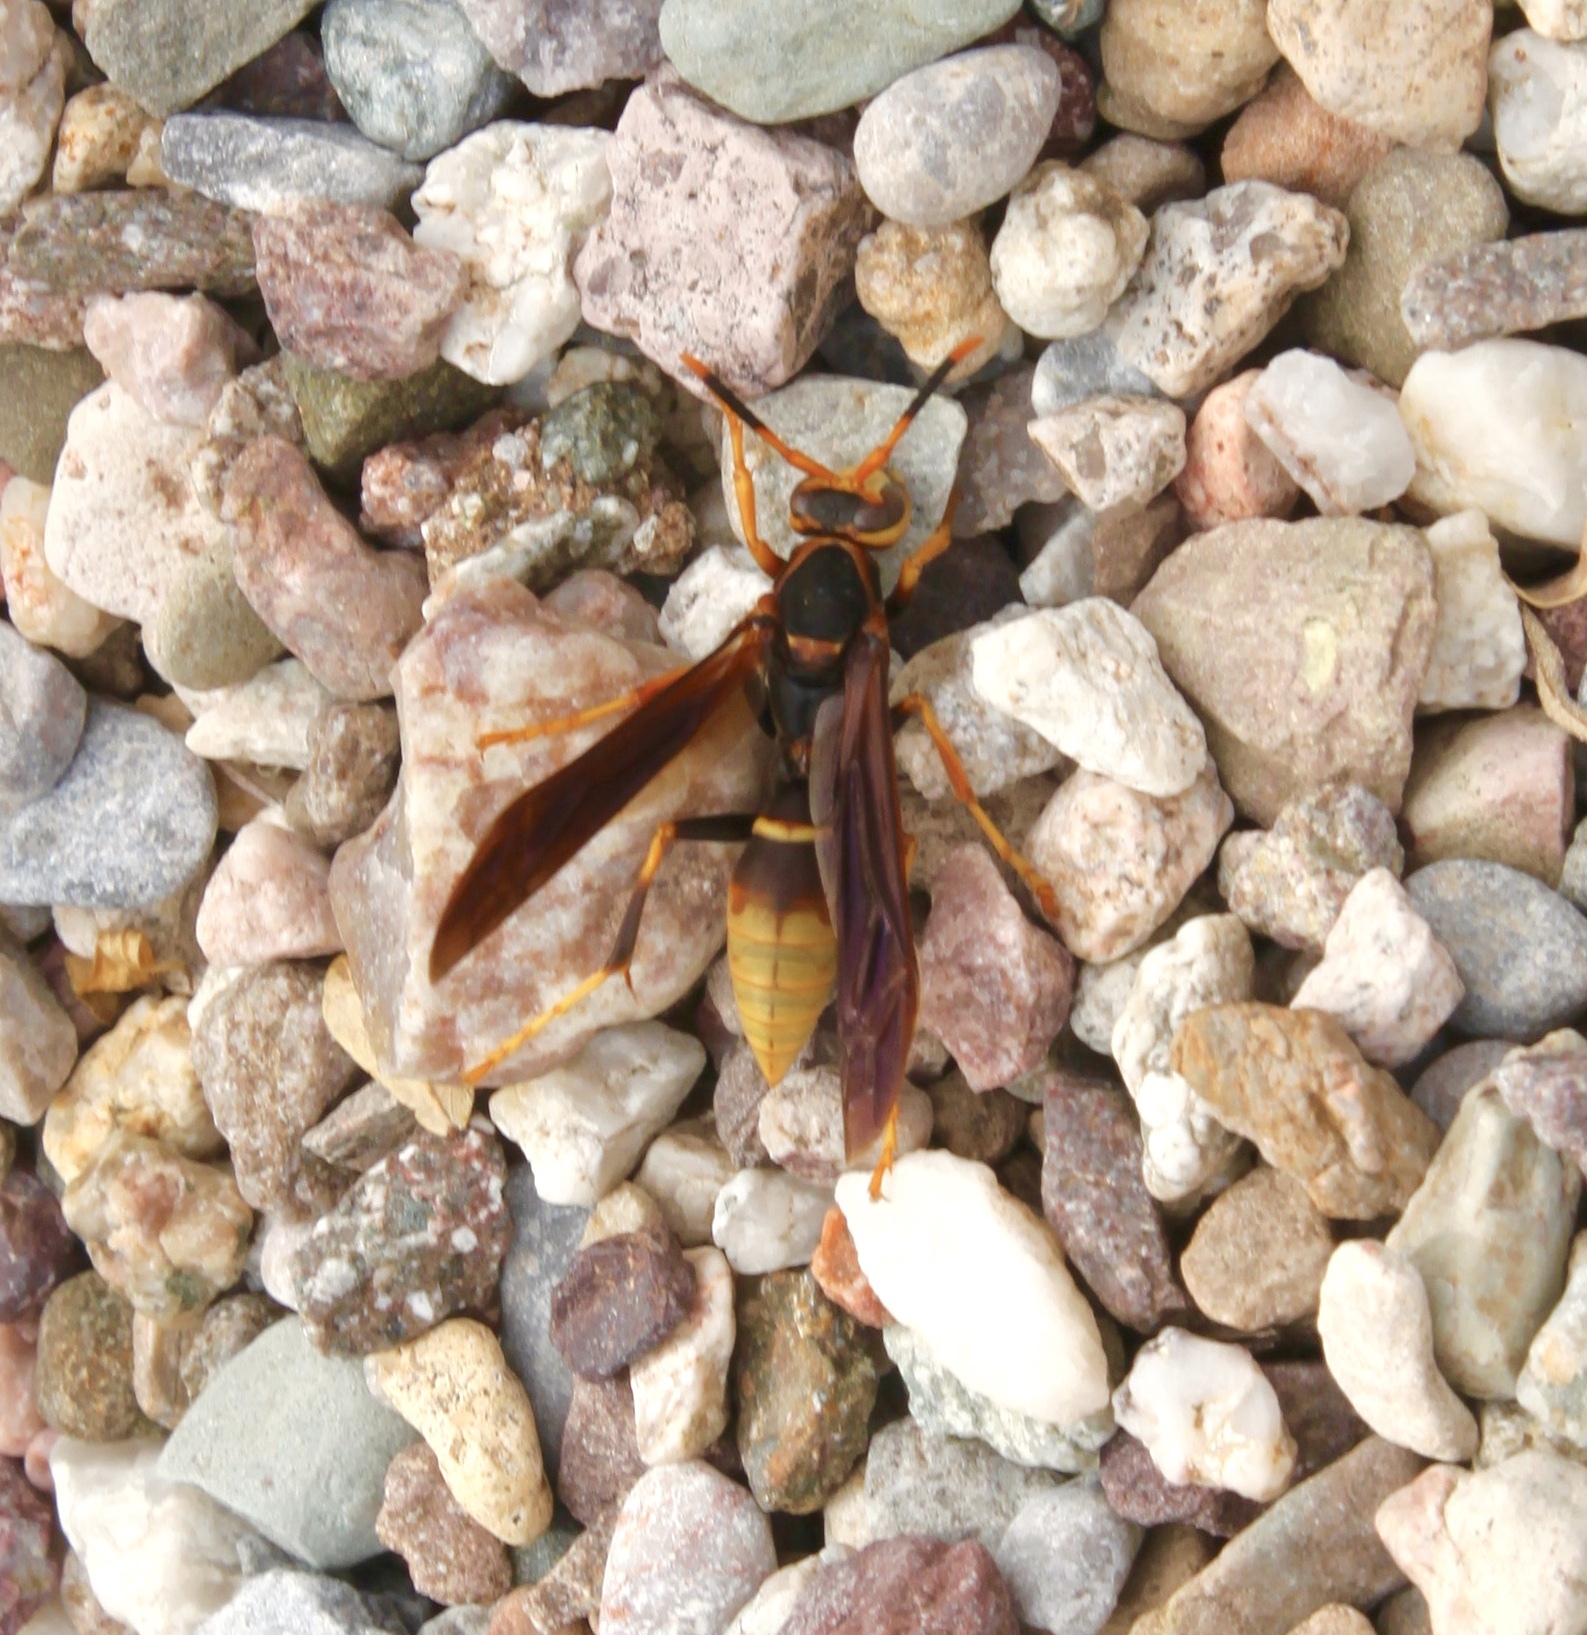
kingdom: Animalia
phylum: Arthropoda
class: Insecta
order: Hymenoptera
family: Eumenidae
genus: Polistes
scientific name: Polistes comanchus
